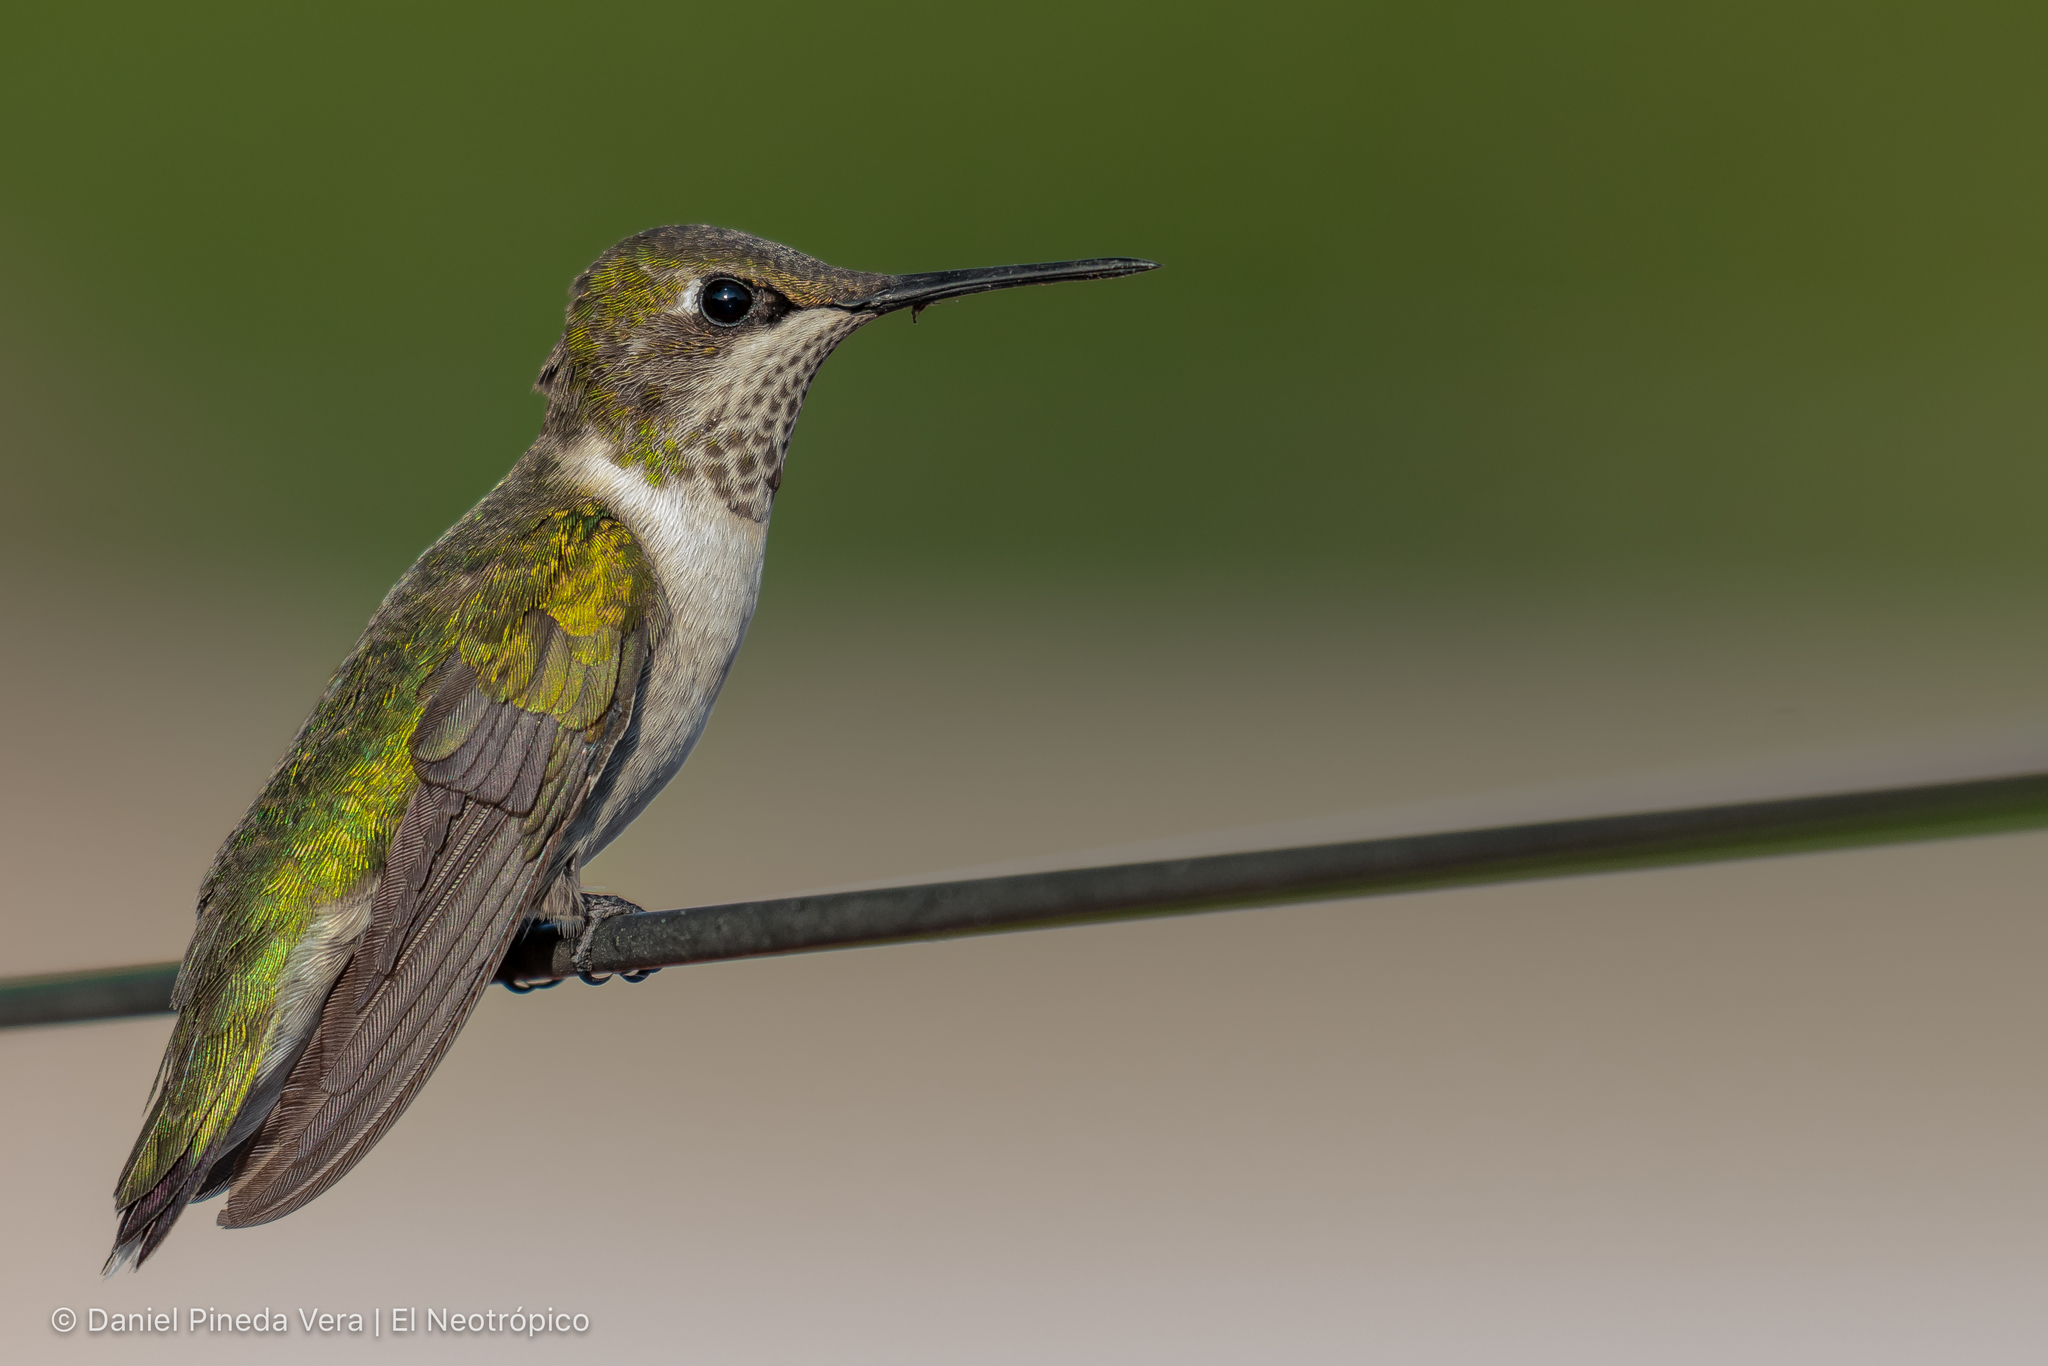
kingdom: Animalia
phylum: Chordata
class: Aves
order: Apodiformes
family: Trochilidae
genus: Archilochus
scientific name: Archilochus colubris
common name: Ruby-throated hummingbird
